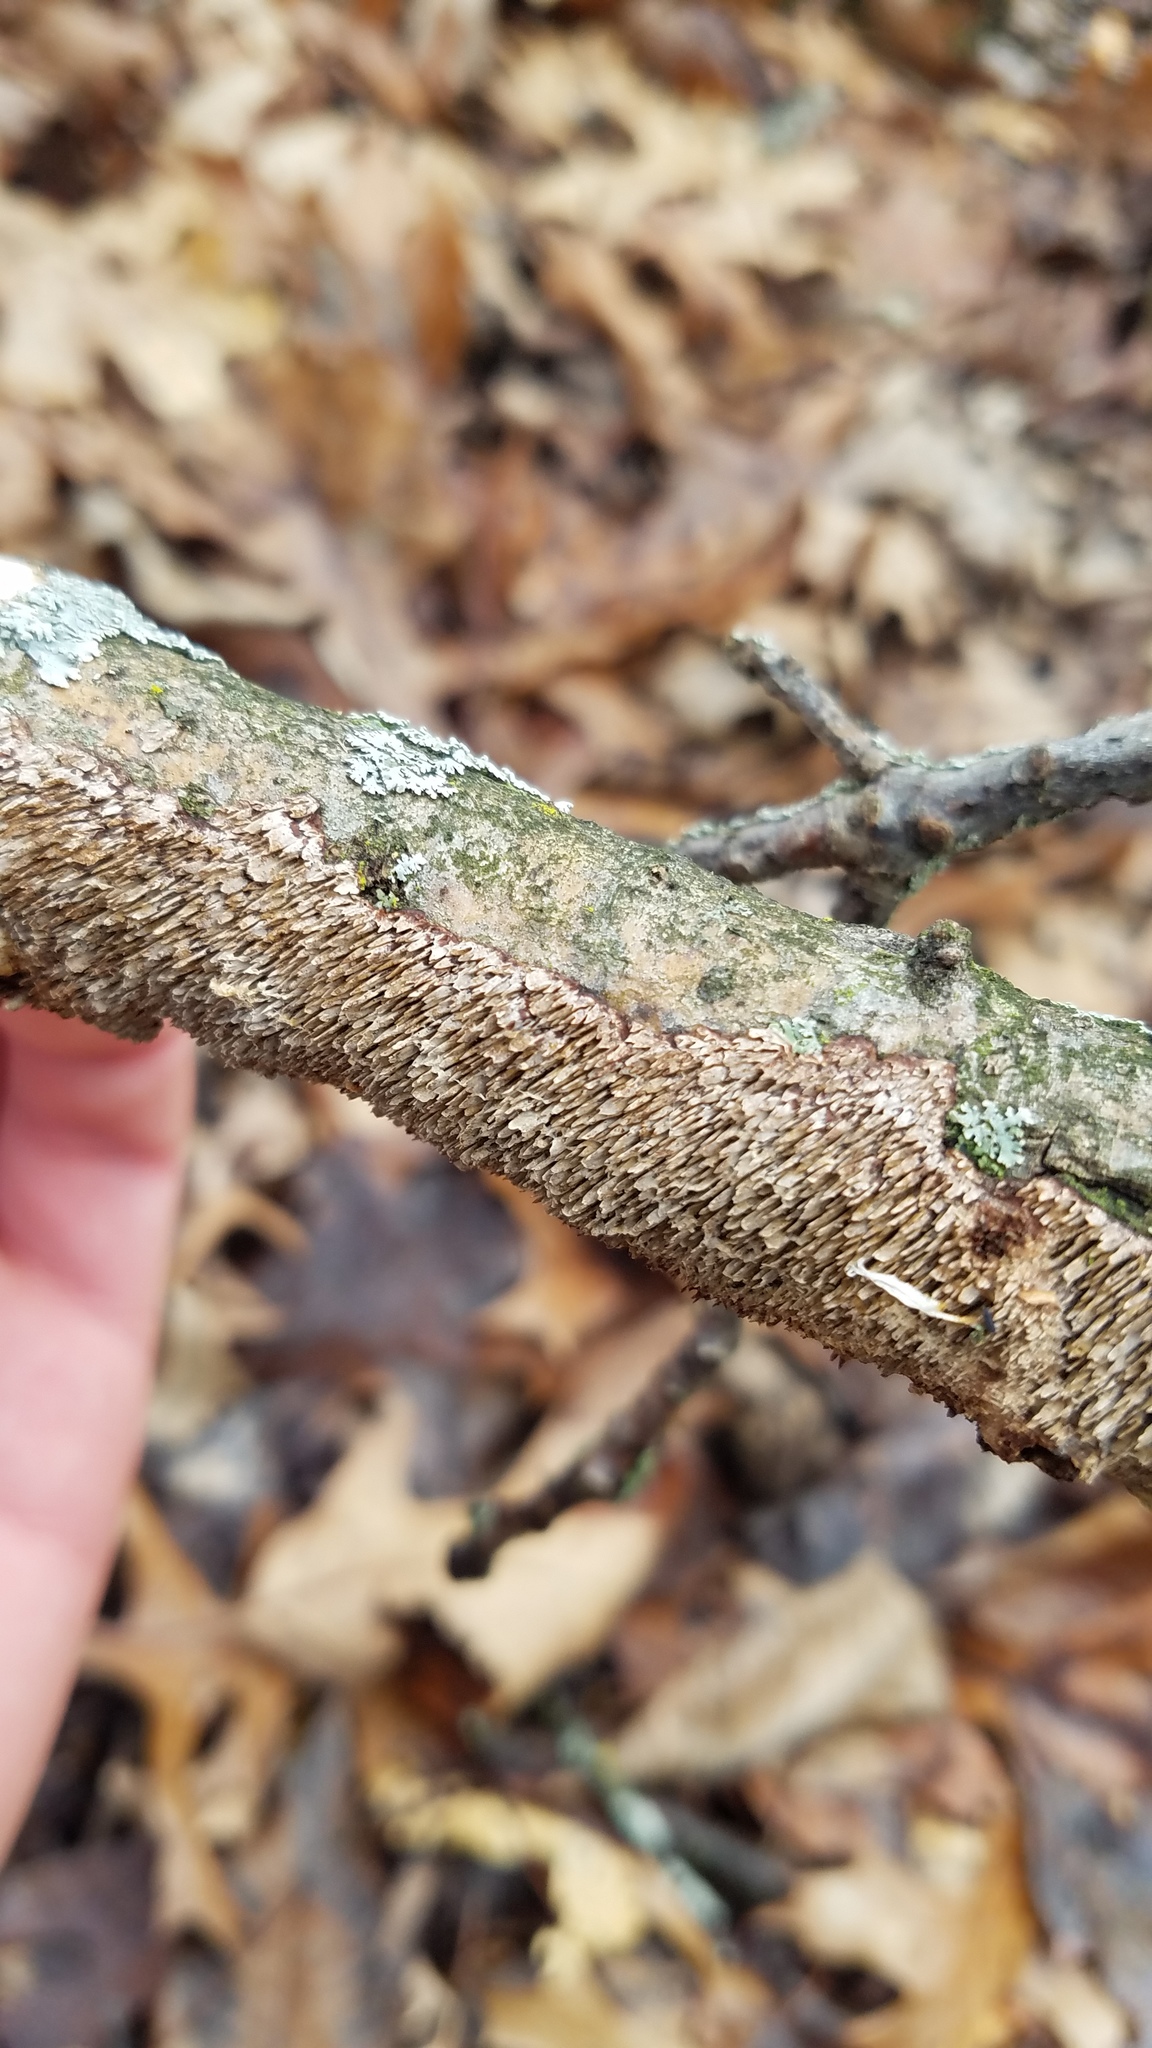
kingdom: Fungi
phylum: Basidiomycota
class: Agaricomycetes
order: Hymenochaetales
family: Hymenochaetaceae
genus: Hydnoporia
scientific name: Hydnoporia olivacea
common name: Brown-toothed crust fungus
